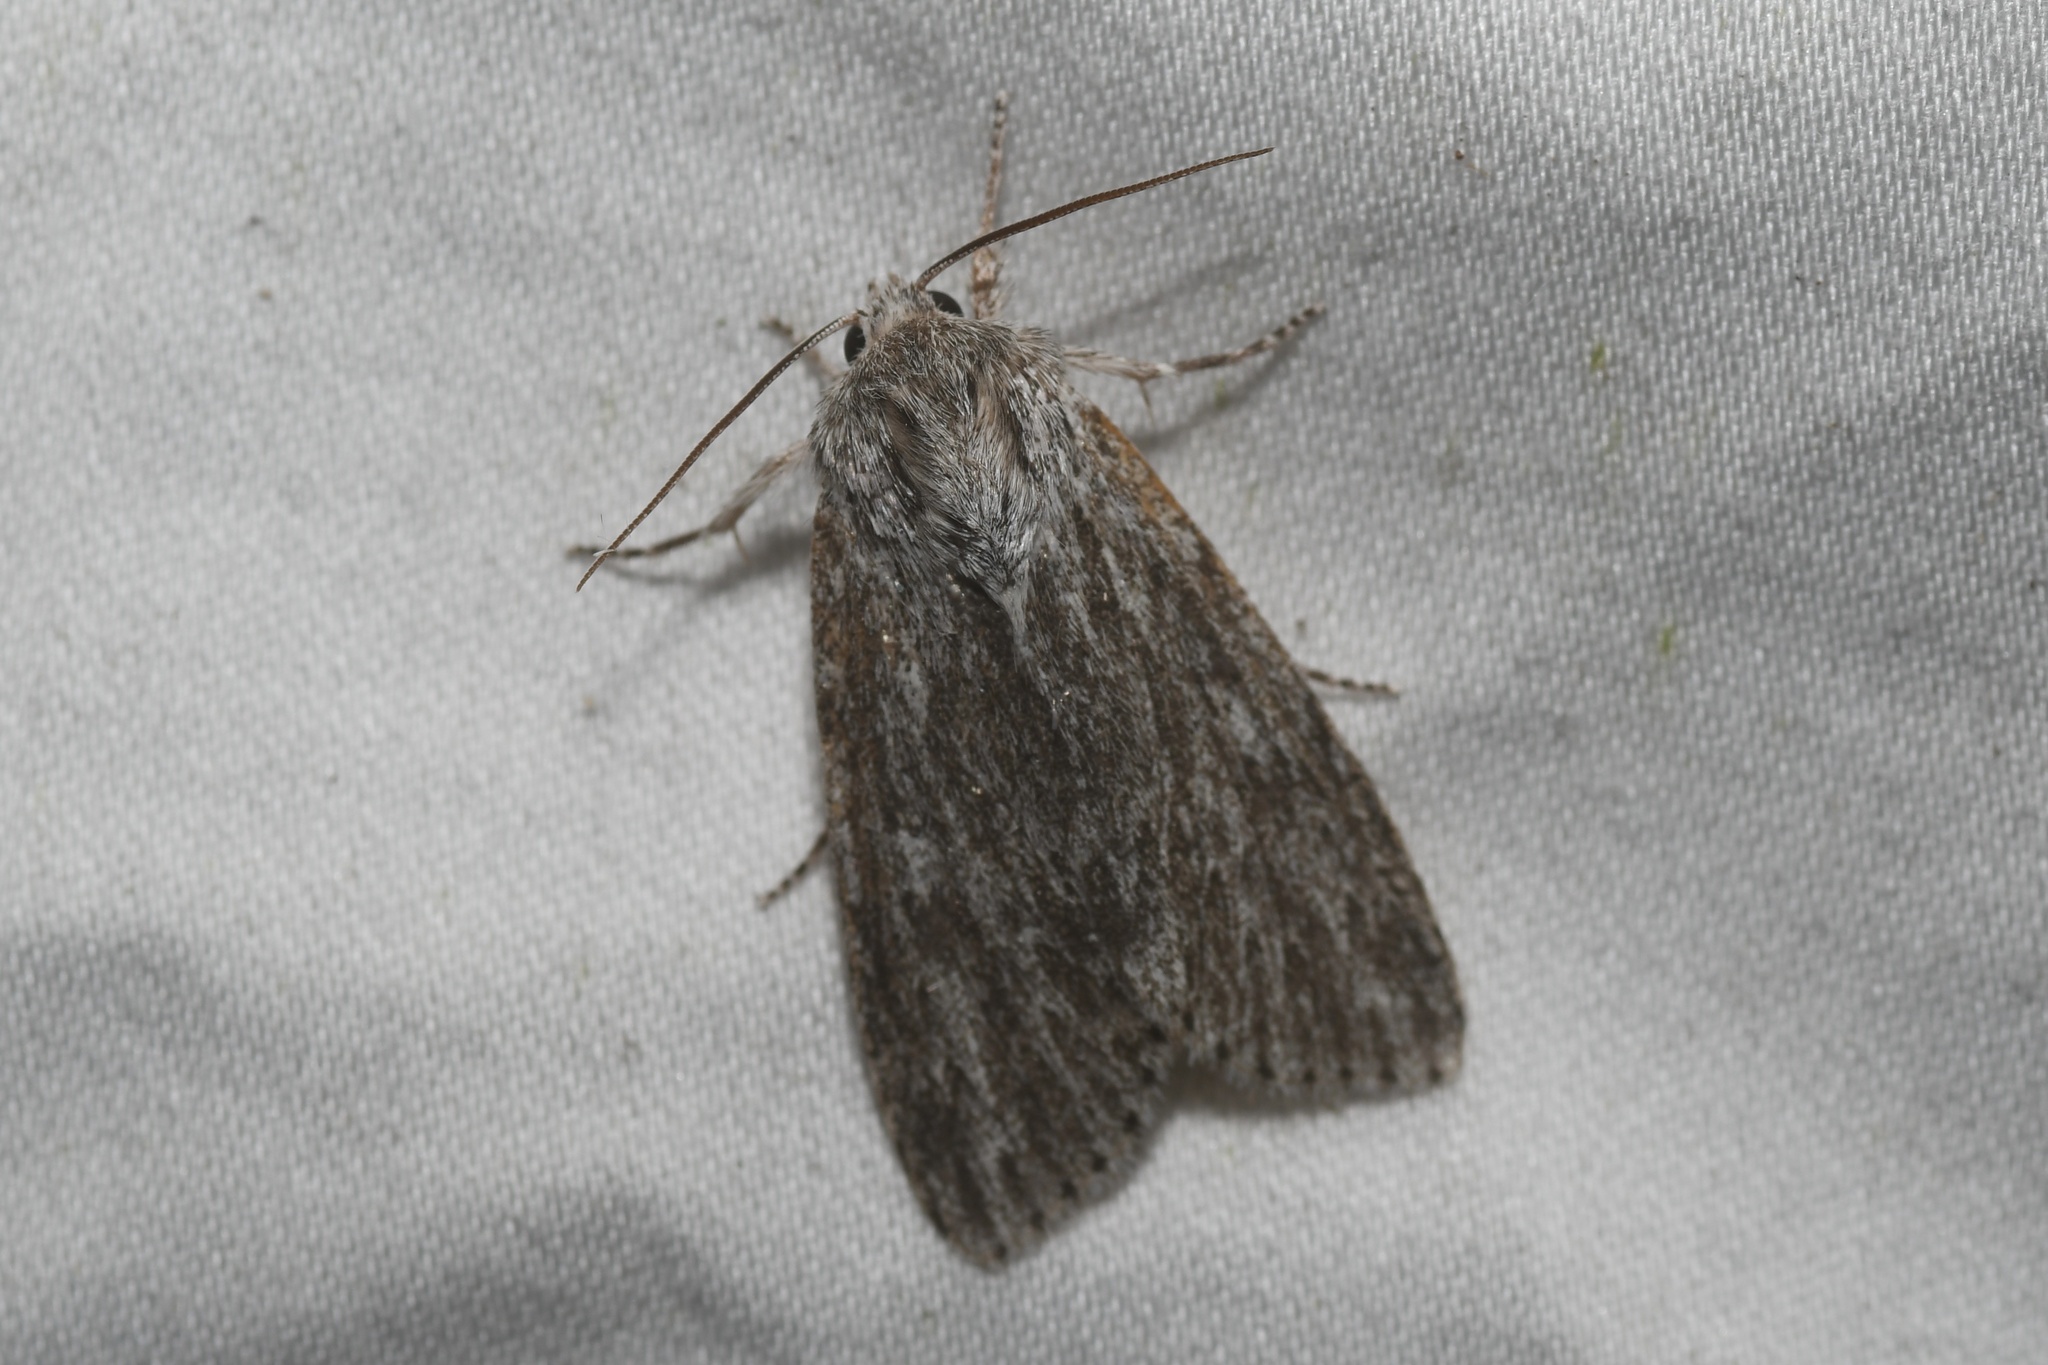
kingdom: Animalia
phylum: Arthropoda
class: Insecta
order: Lepidoptera
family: Noctuidae
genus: Acronicta
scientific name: Acronicta oblinita
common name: Smeared dagger
